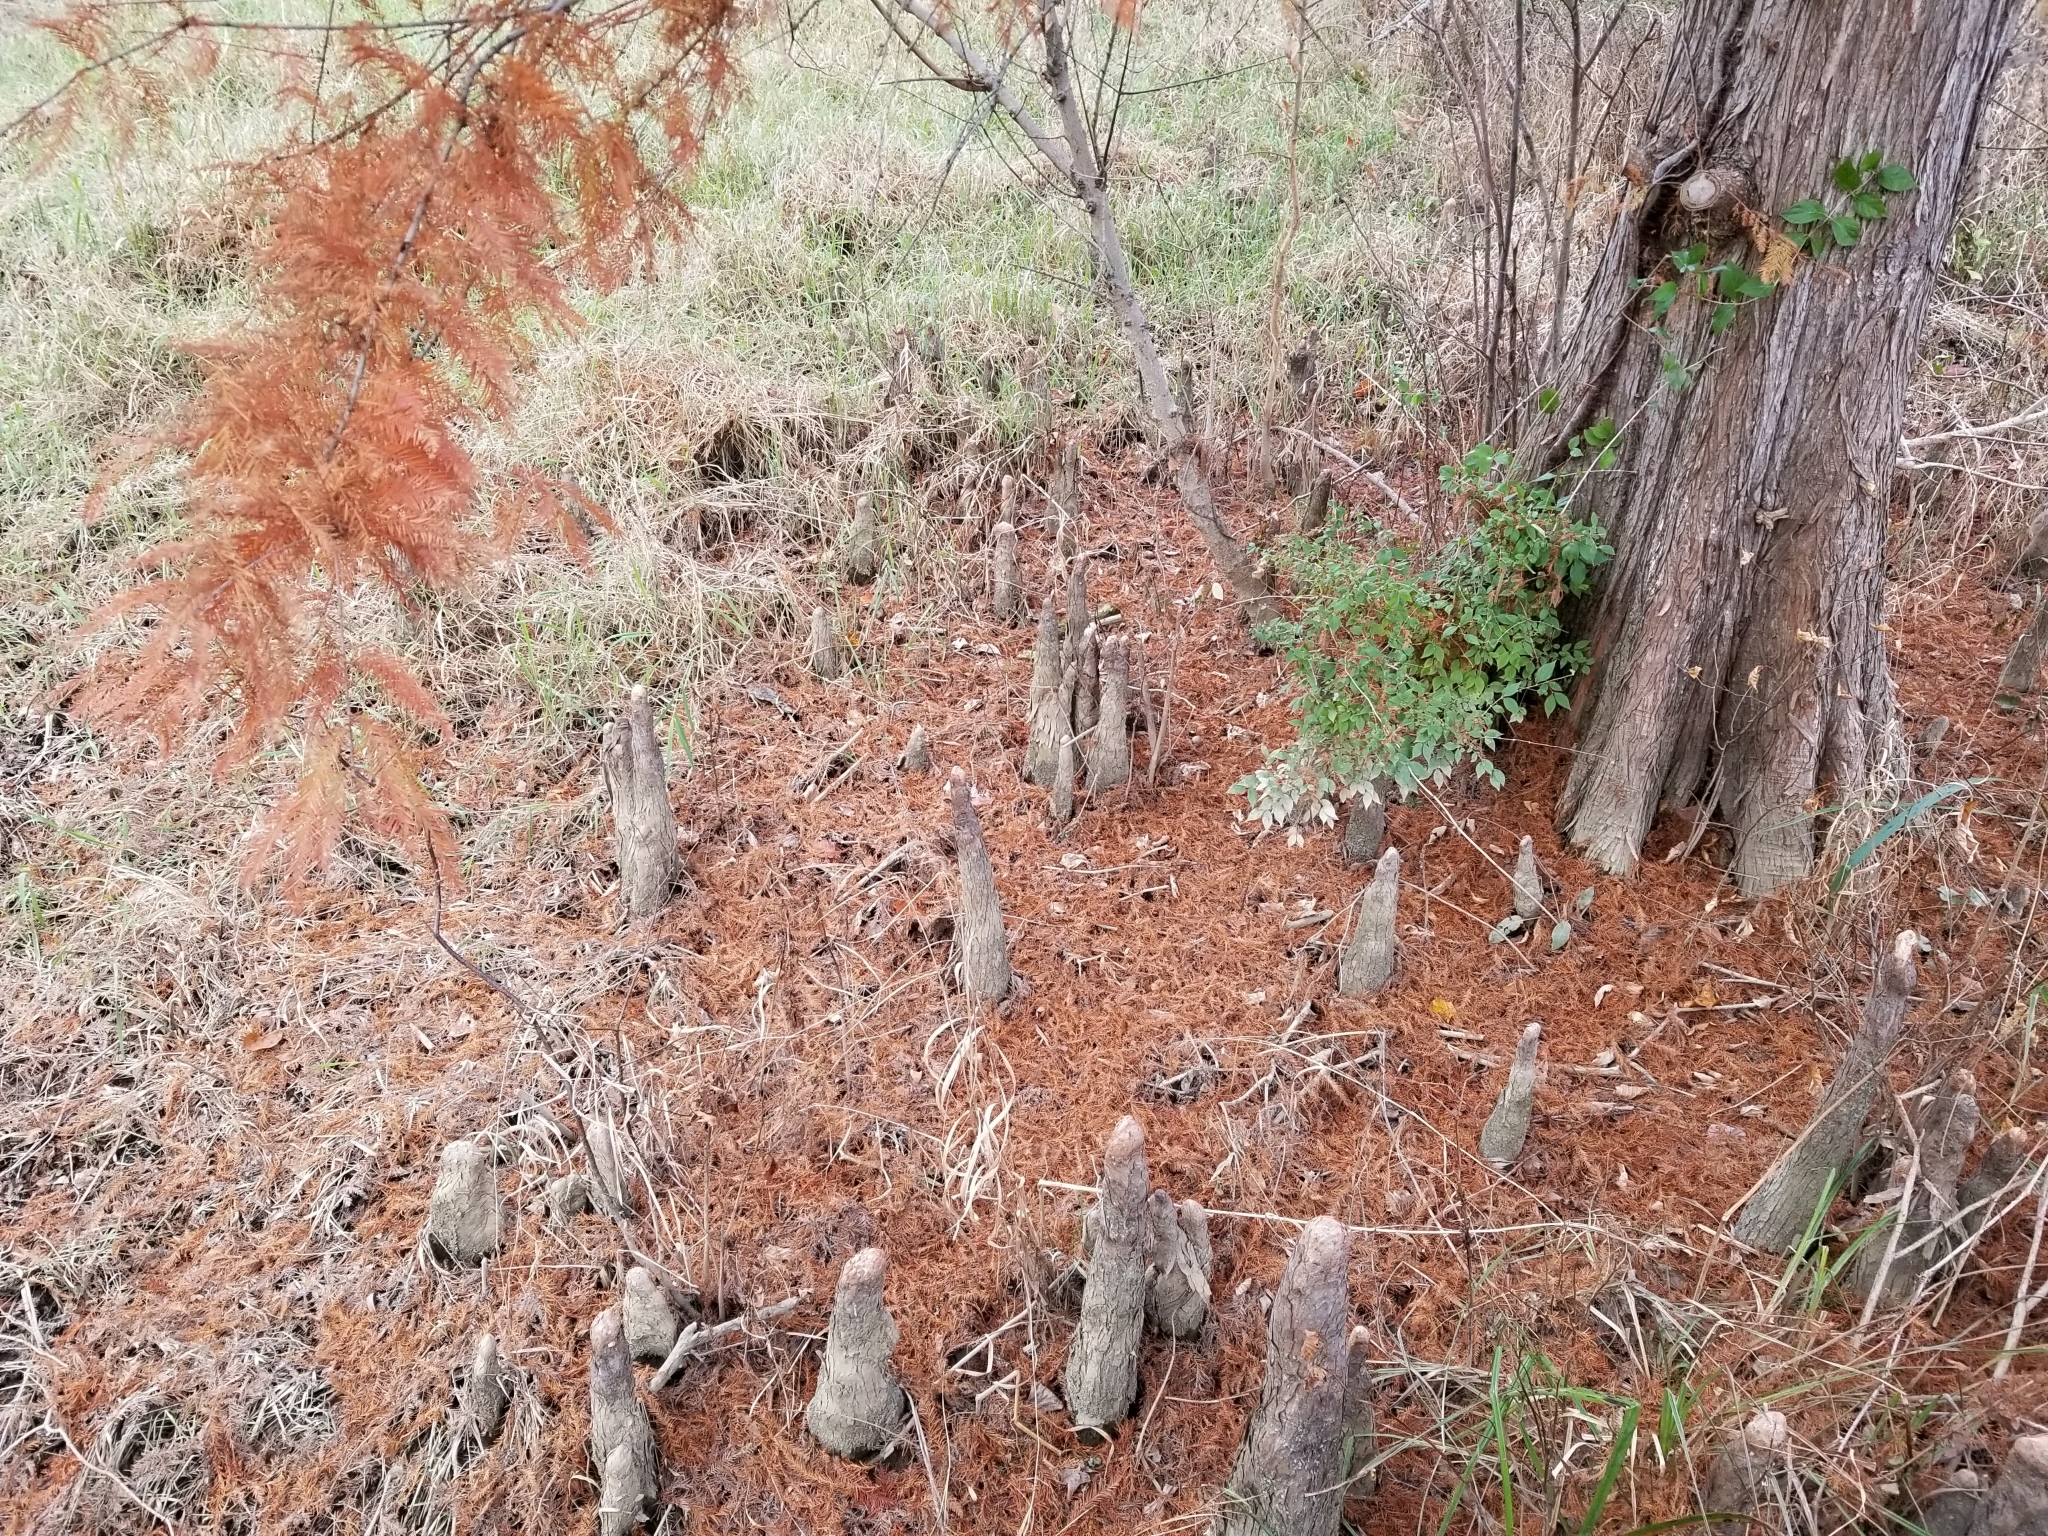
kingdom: Plantae
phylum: Tracheophyta
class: Pinopsida
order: Pinales
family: Cupressaceae
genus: Taxodium
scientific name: Taxodium distichum
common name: Bald cypress
